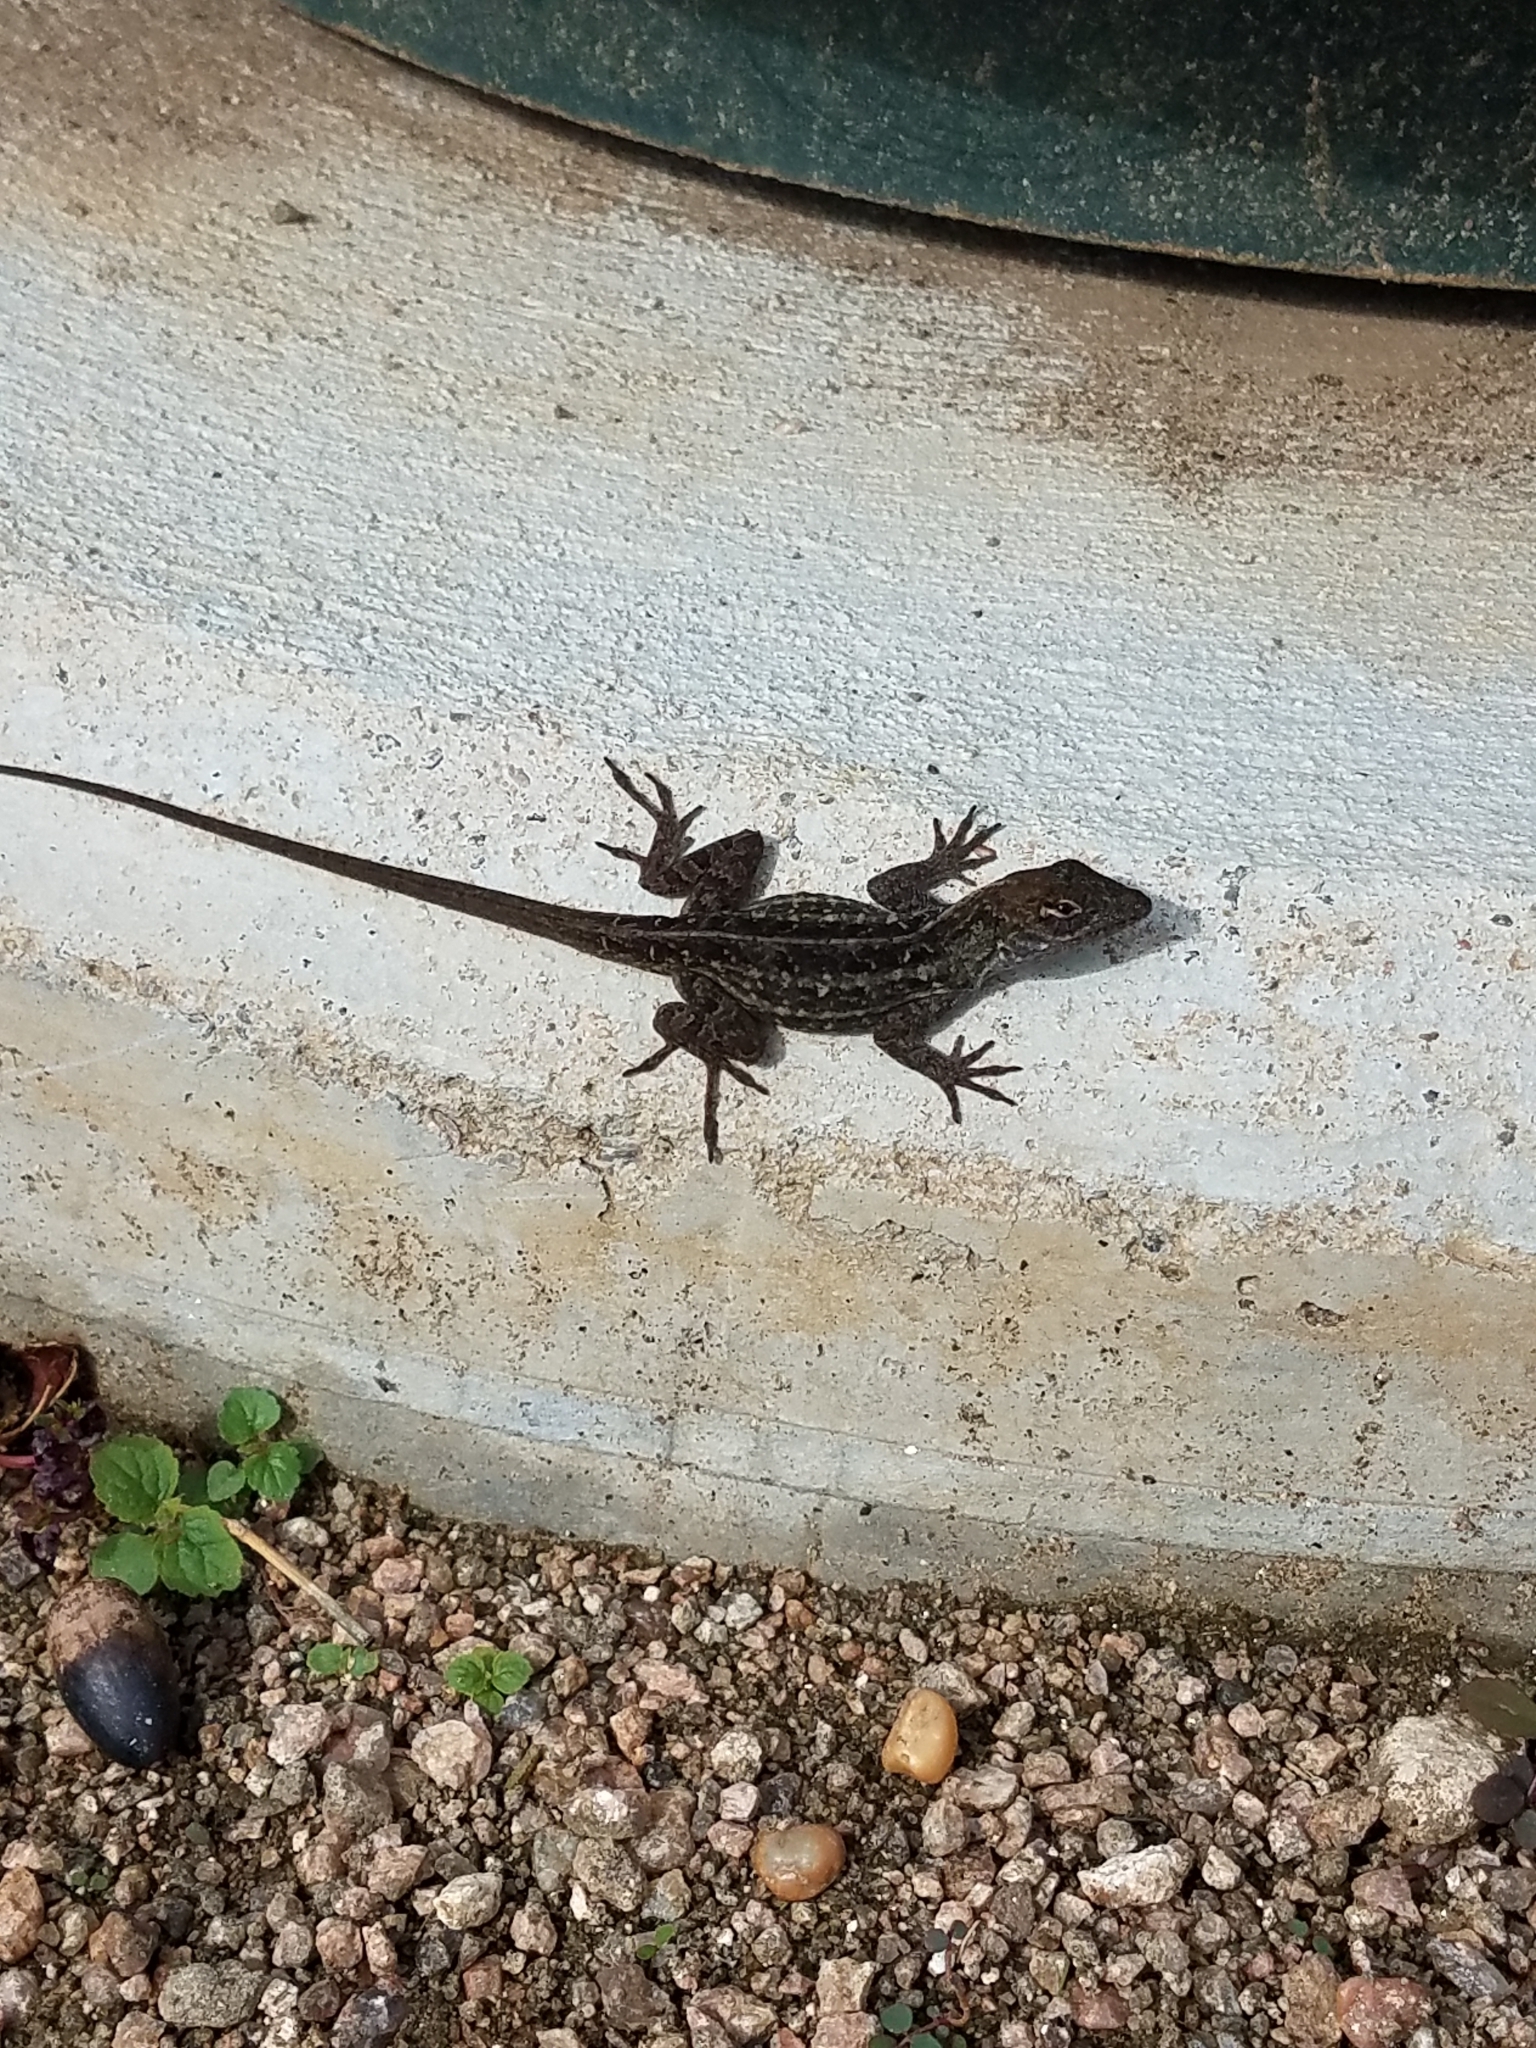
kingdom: Animalia
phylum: Chordata
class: Squamata
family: Dactyloidae
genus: Anolis
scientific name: Anolis sagrei
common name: Brown anole
